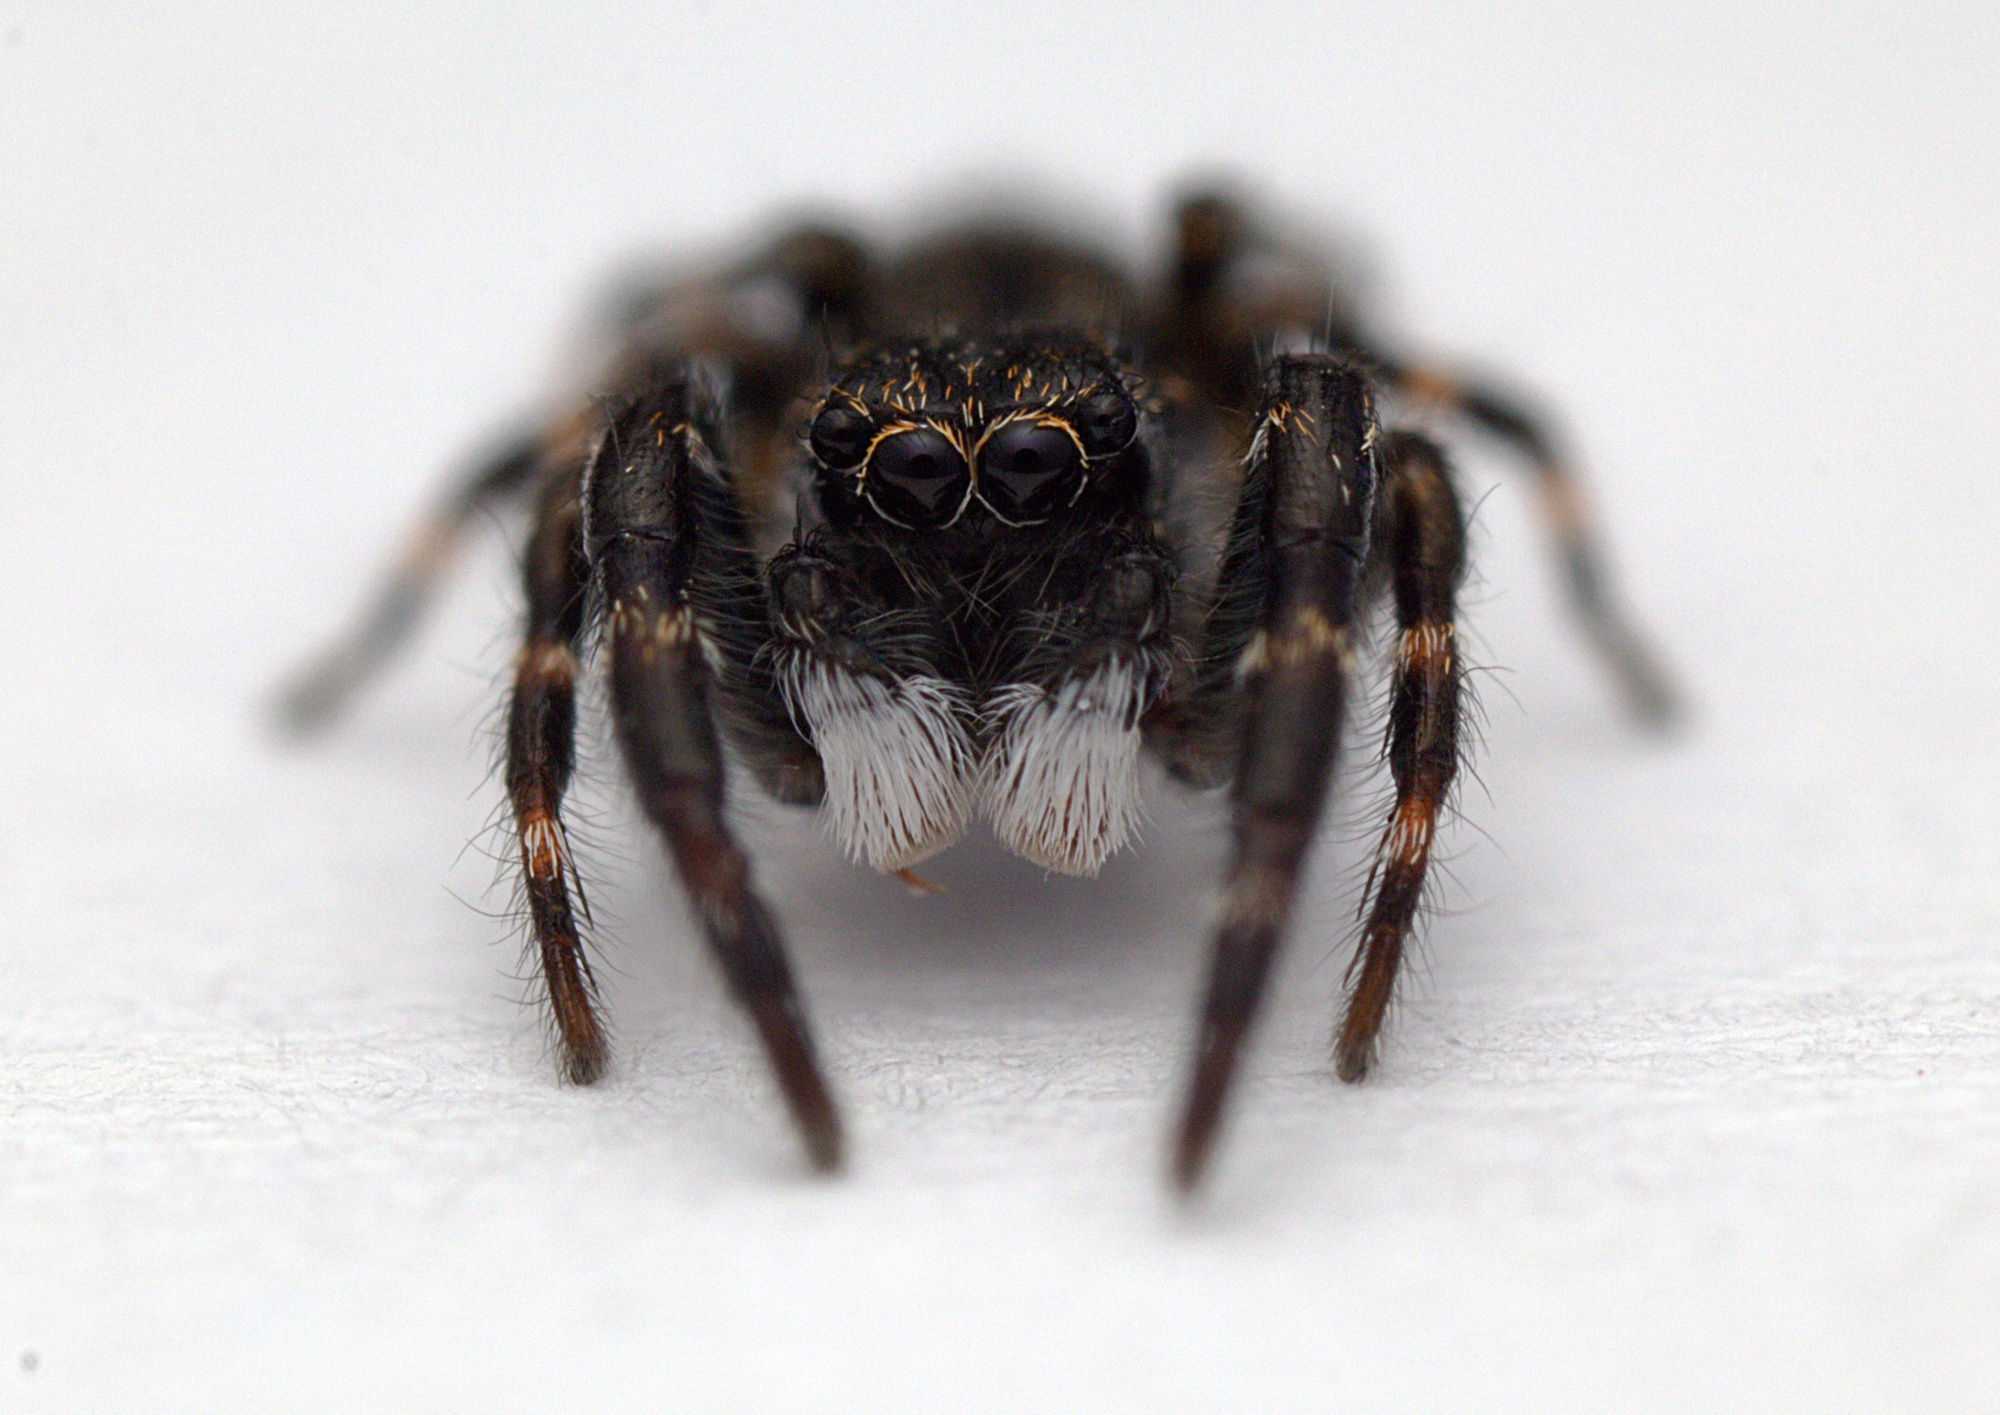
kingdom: Animalia
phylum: Arthropoda
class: Arachnida
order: Araneae
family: Salticidae
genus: Adoxotoma
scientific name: Adoxotoma forsteri
